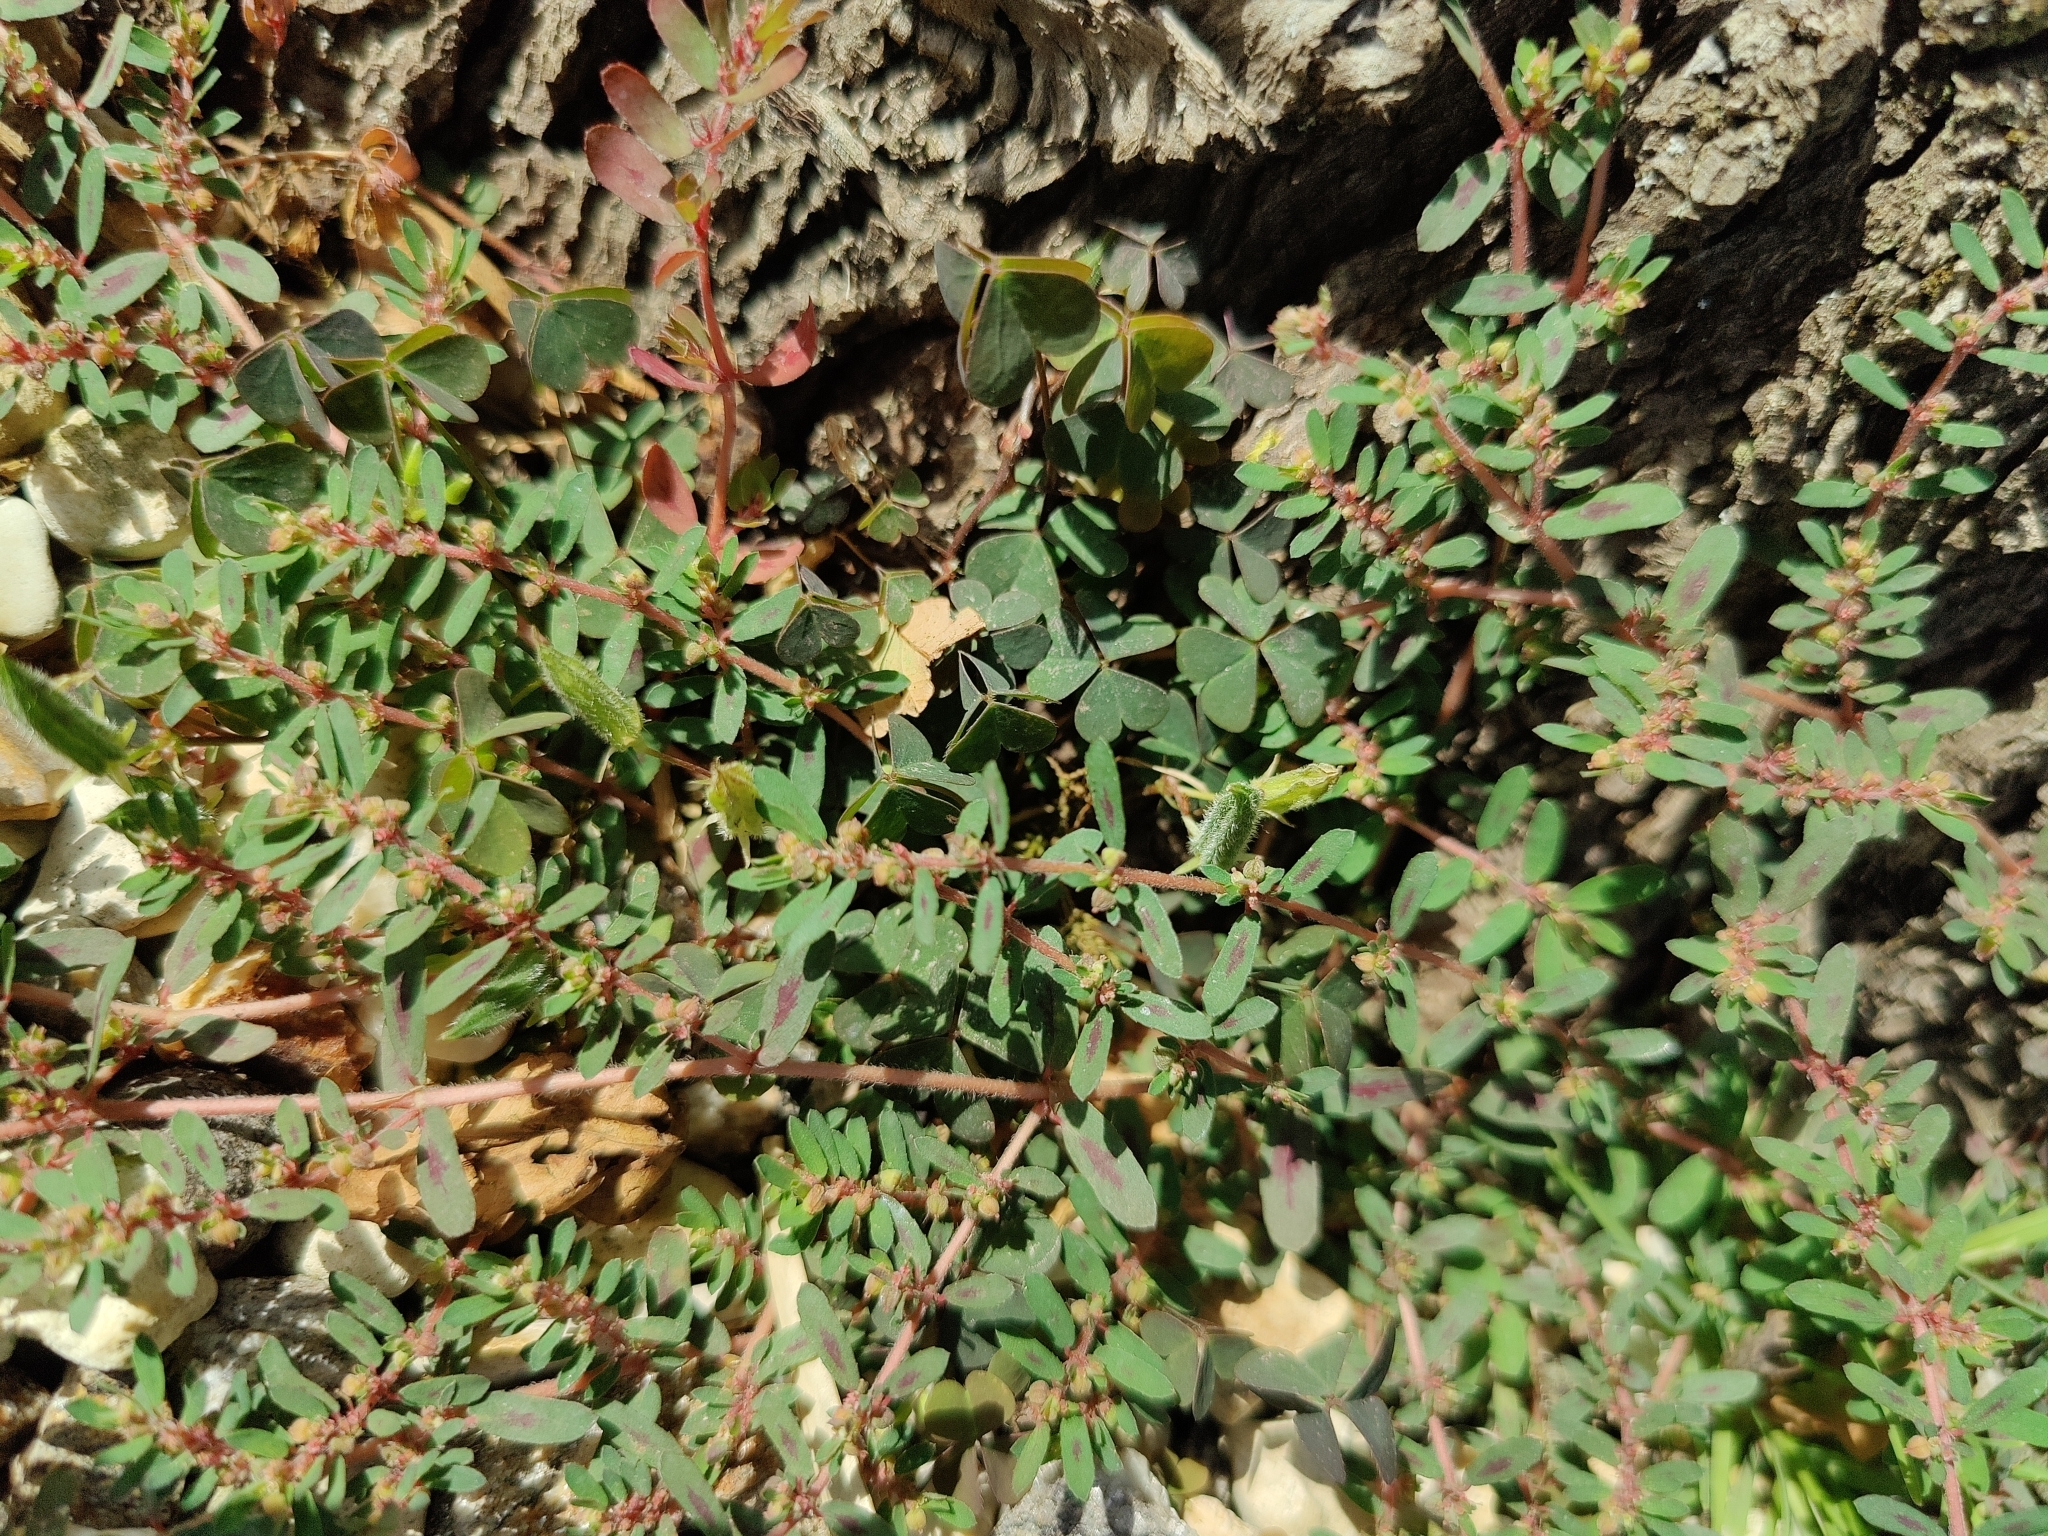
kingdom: Plantae
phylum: Tracheophyta
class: Magnoliopsida
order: Malpighiales
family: Euphorbiaceae
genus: Euphorbia
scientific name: Euphorbia maculata
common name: Spotted spurge
